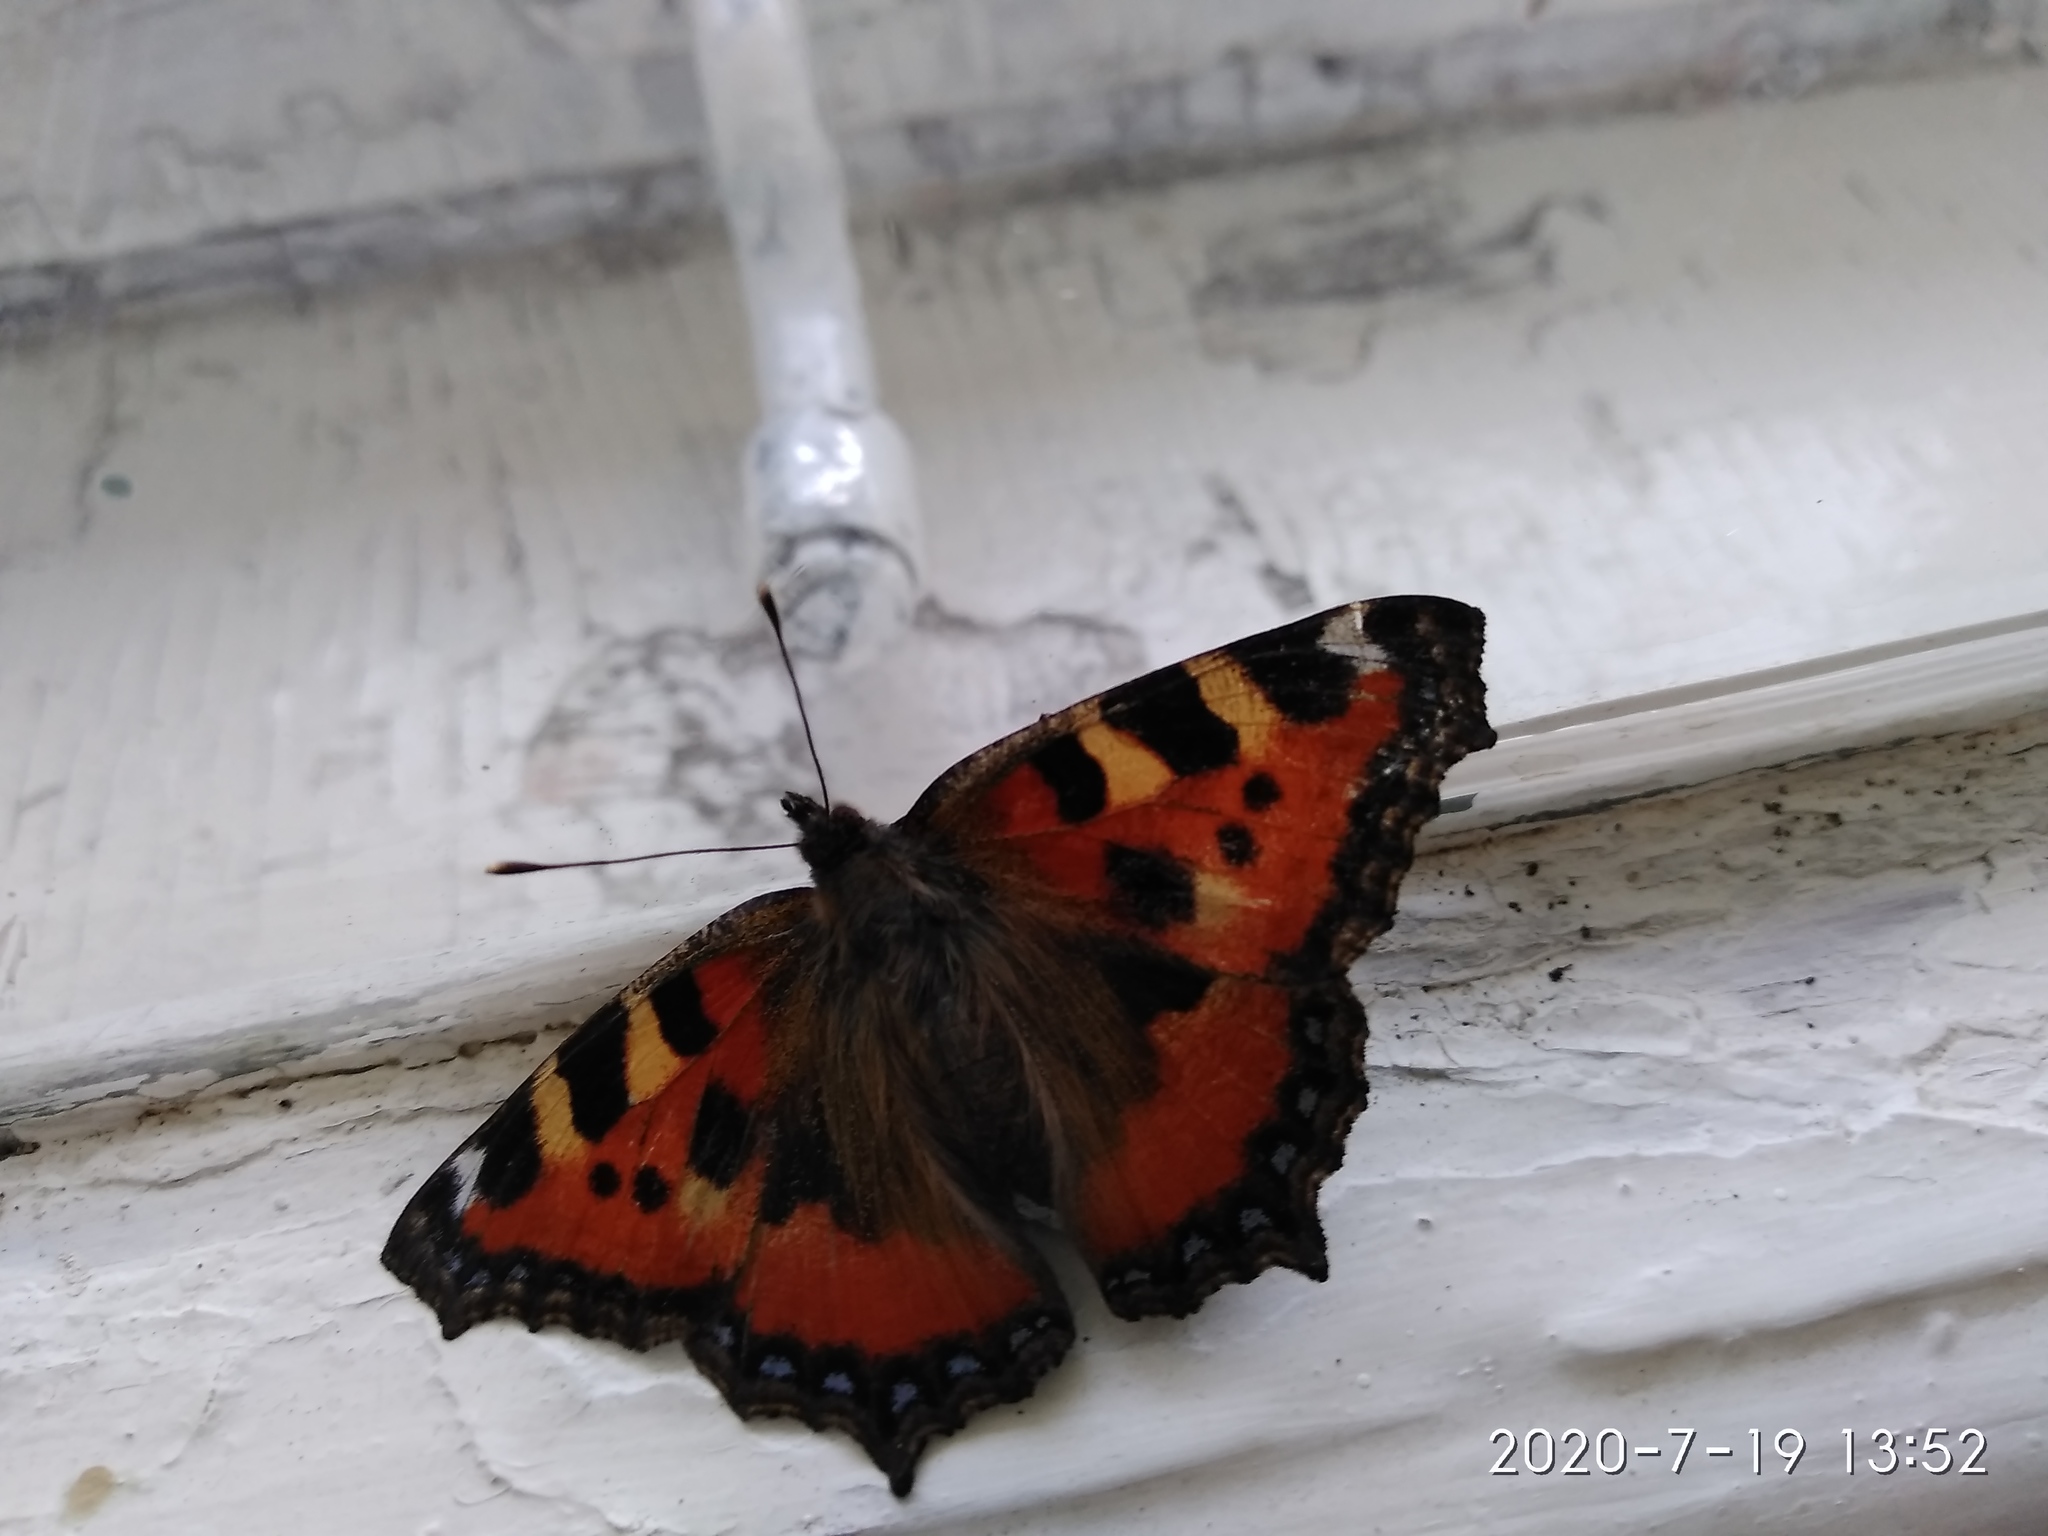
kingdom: Animalia
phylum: Arthropoda
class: Insecta
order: Lepidoptera
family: Nymphalidae
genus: Aglais
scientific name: Aglais urticae
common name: Small tortoiseshell
